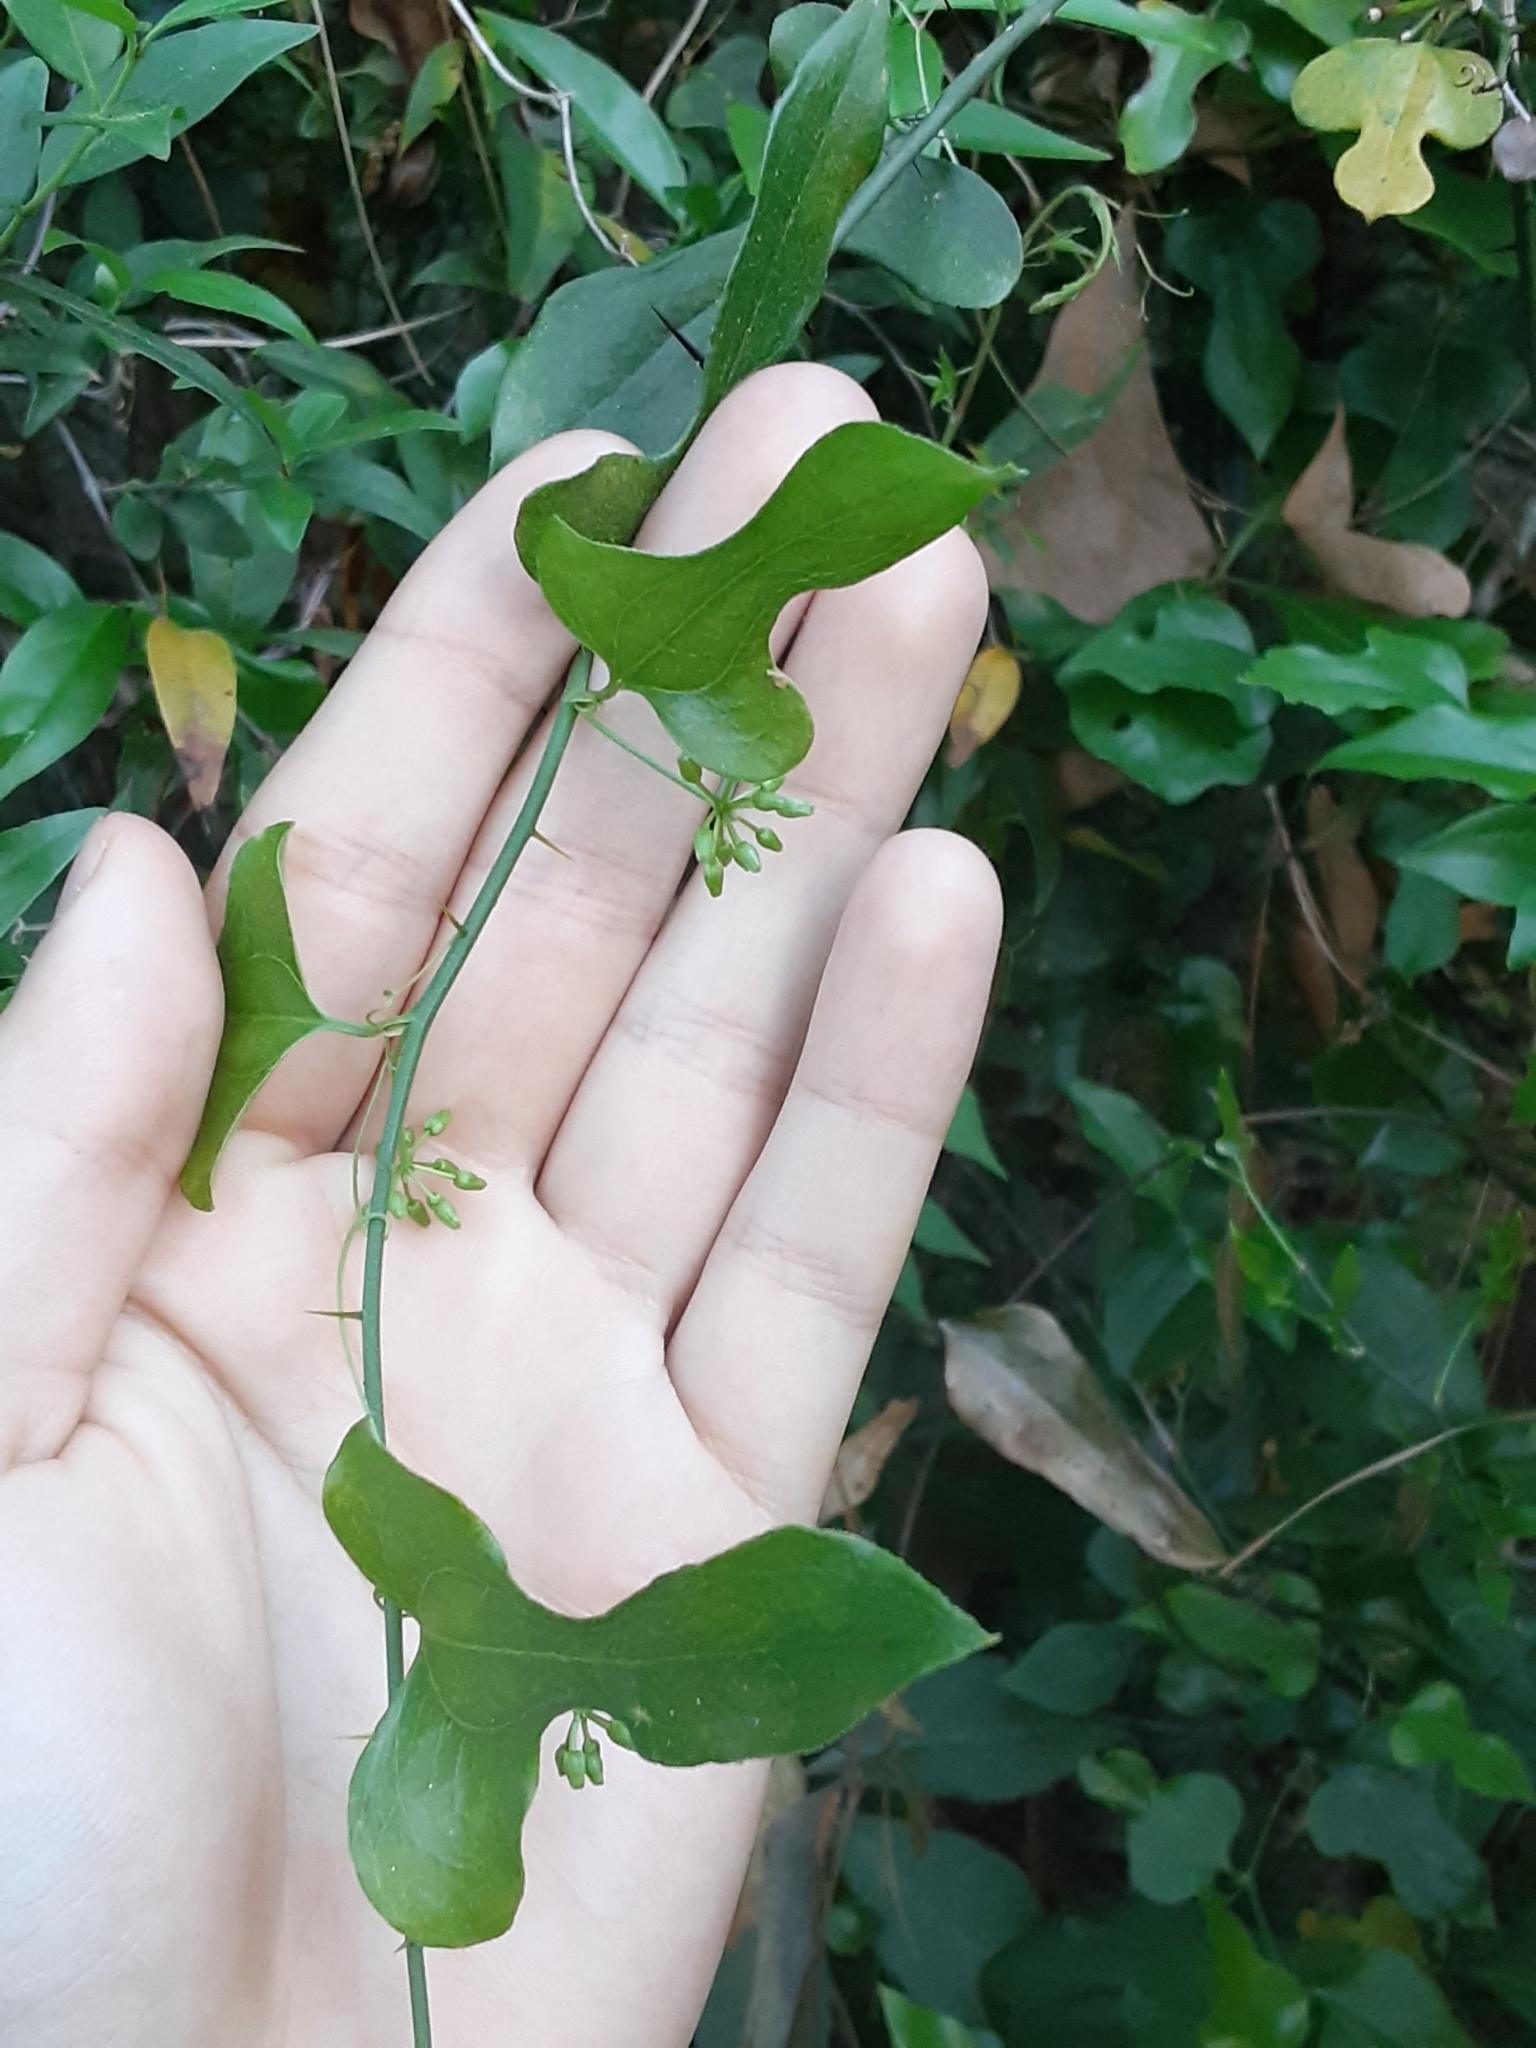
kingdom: Plantae
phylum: Tracheophyta
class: Liliopsida
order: Liliales
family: Smilacaceae
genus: Smilax
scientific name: Smilax tamnoides
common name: Hellfetter
